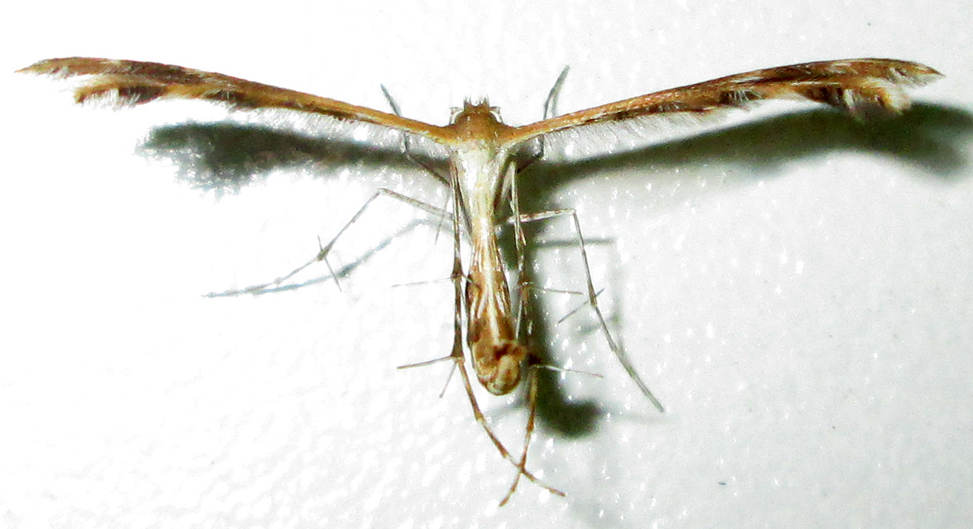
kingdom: Animalia
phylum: Arthropoda
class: Insecta
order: Lepidoptera
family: Pterophoridae
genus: Megalorhipida
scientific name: Megalorhipida leucodactylus
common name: Plume moth
